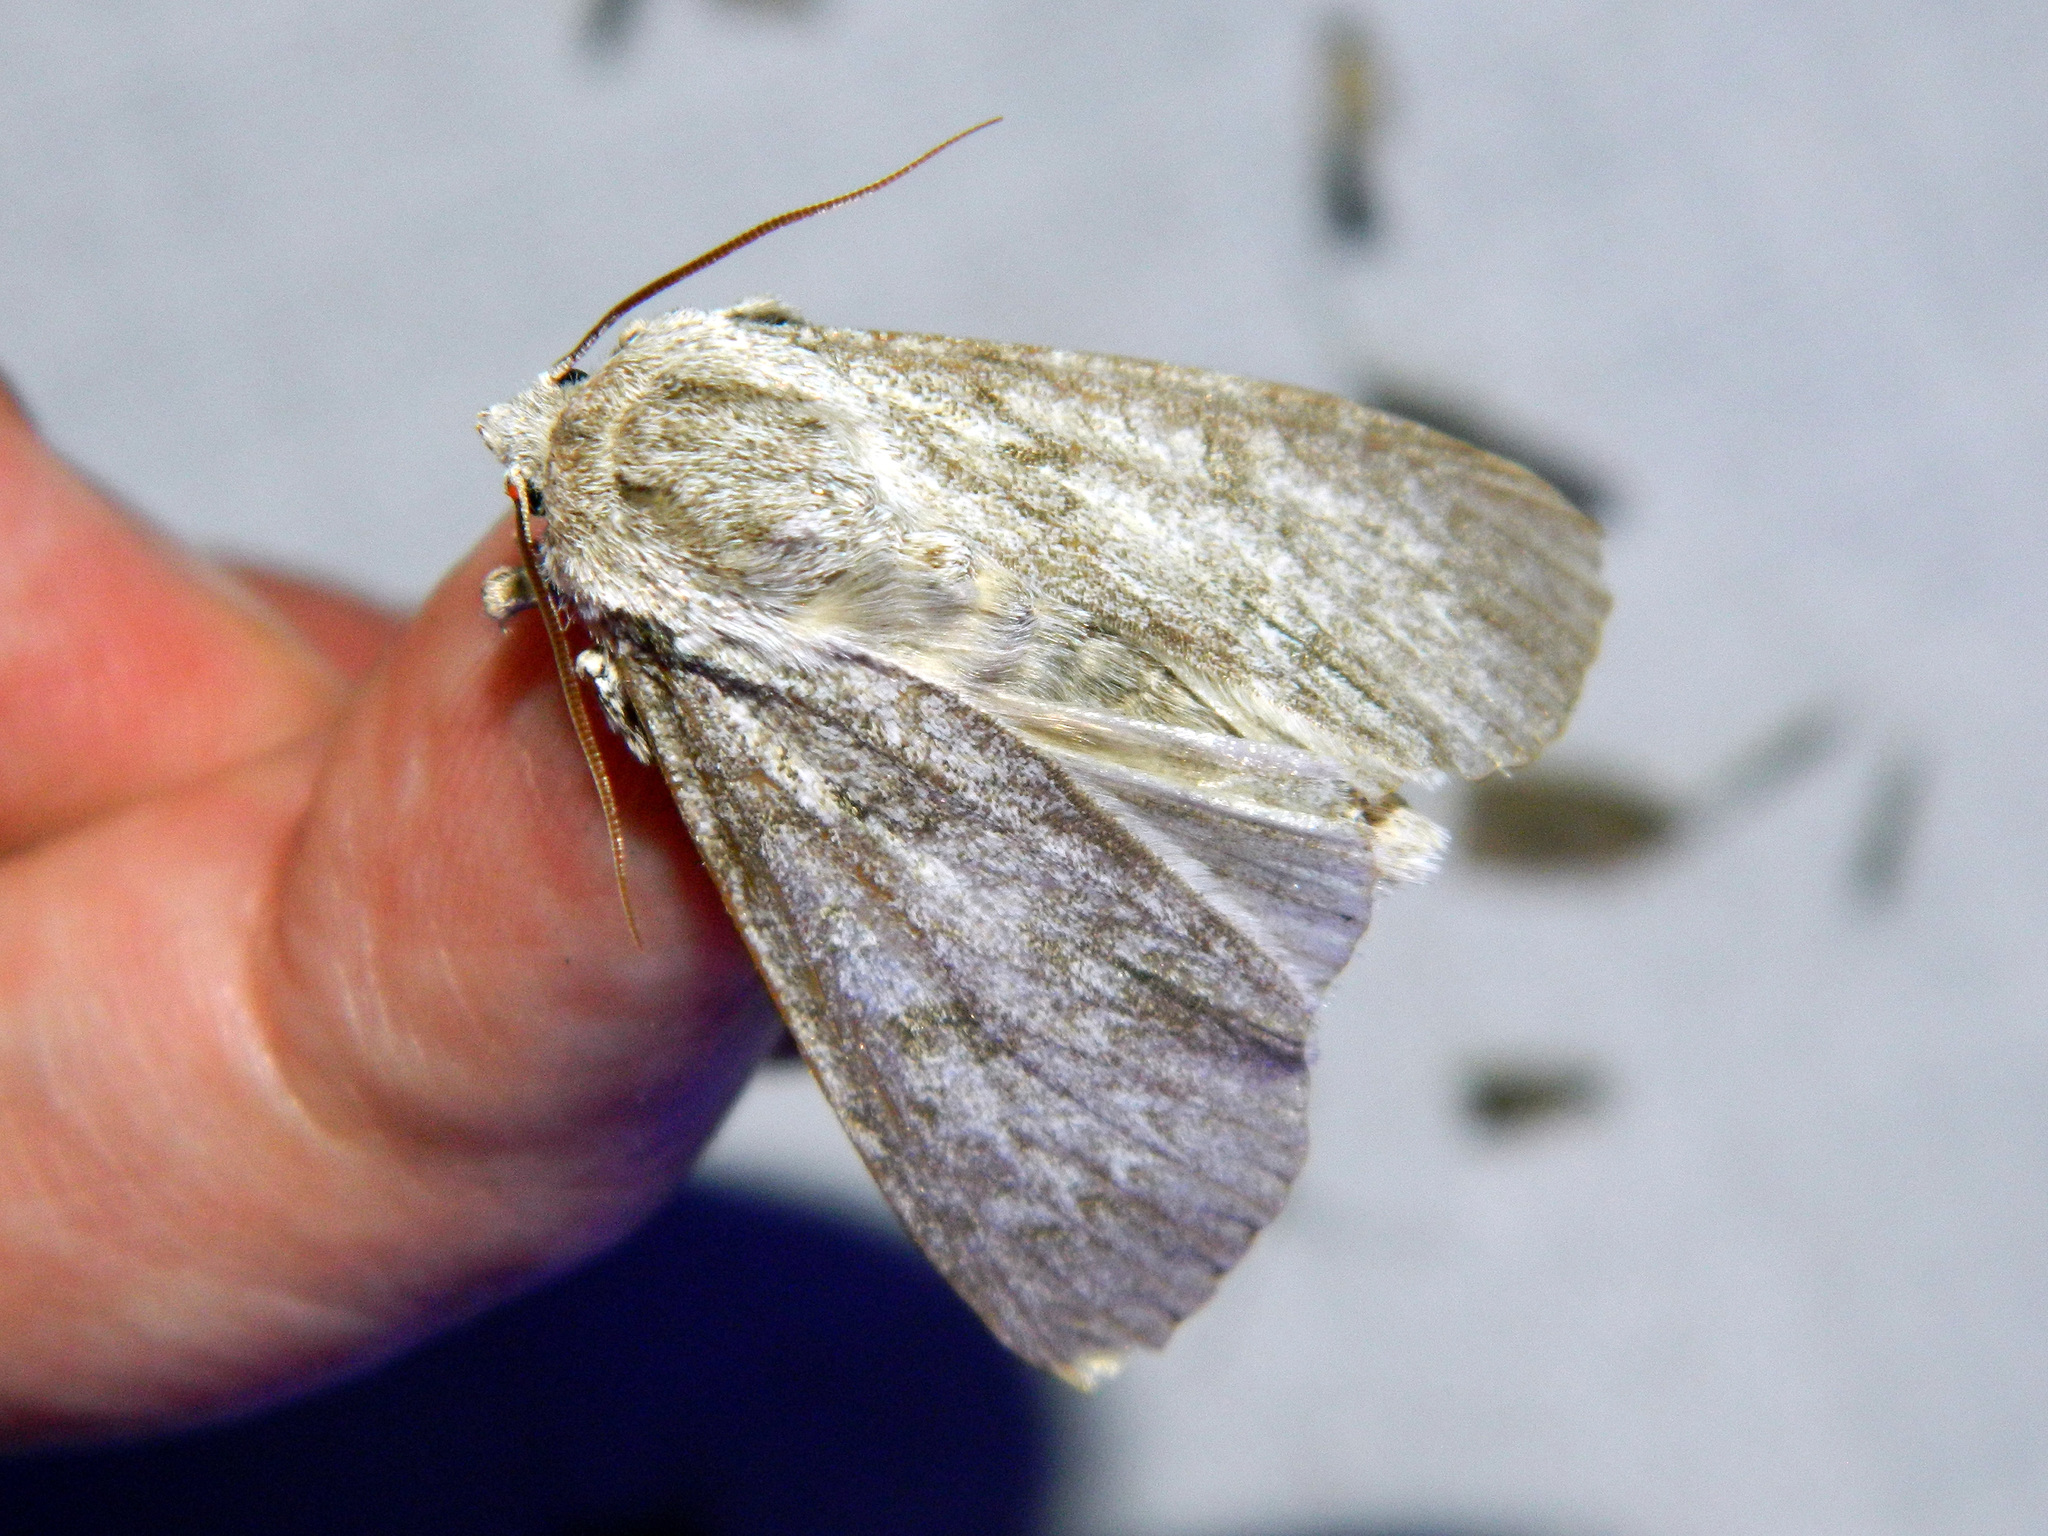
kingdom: Animalia
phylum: Arthropoda
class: Insecta
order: Lepidoptera
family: Noctuidae
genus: Acronicta
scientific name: Acronicta americana
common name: American dagger
